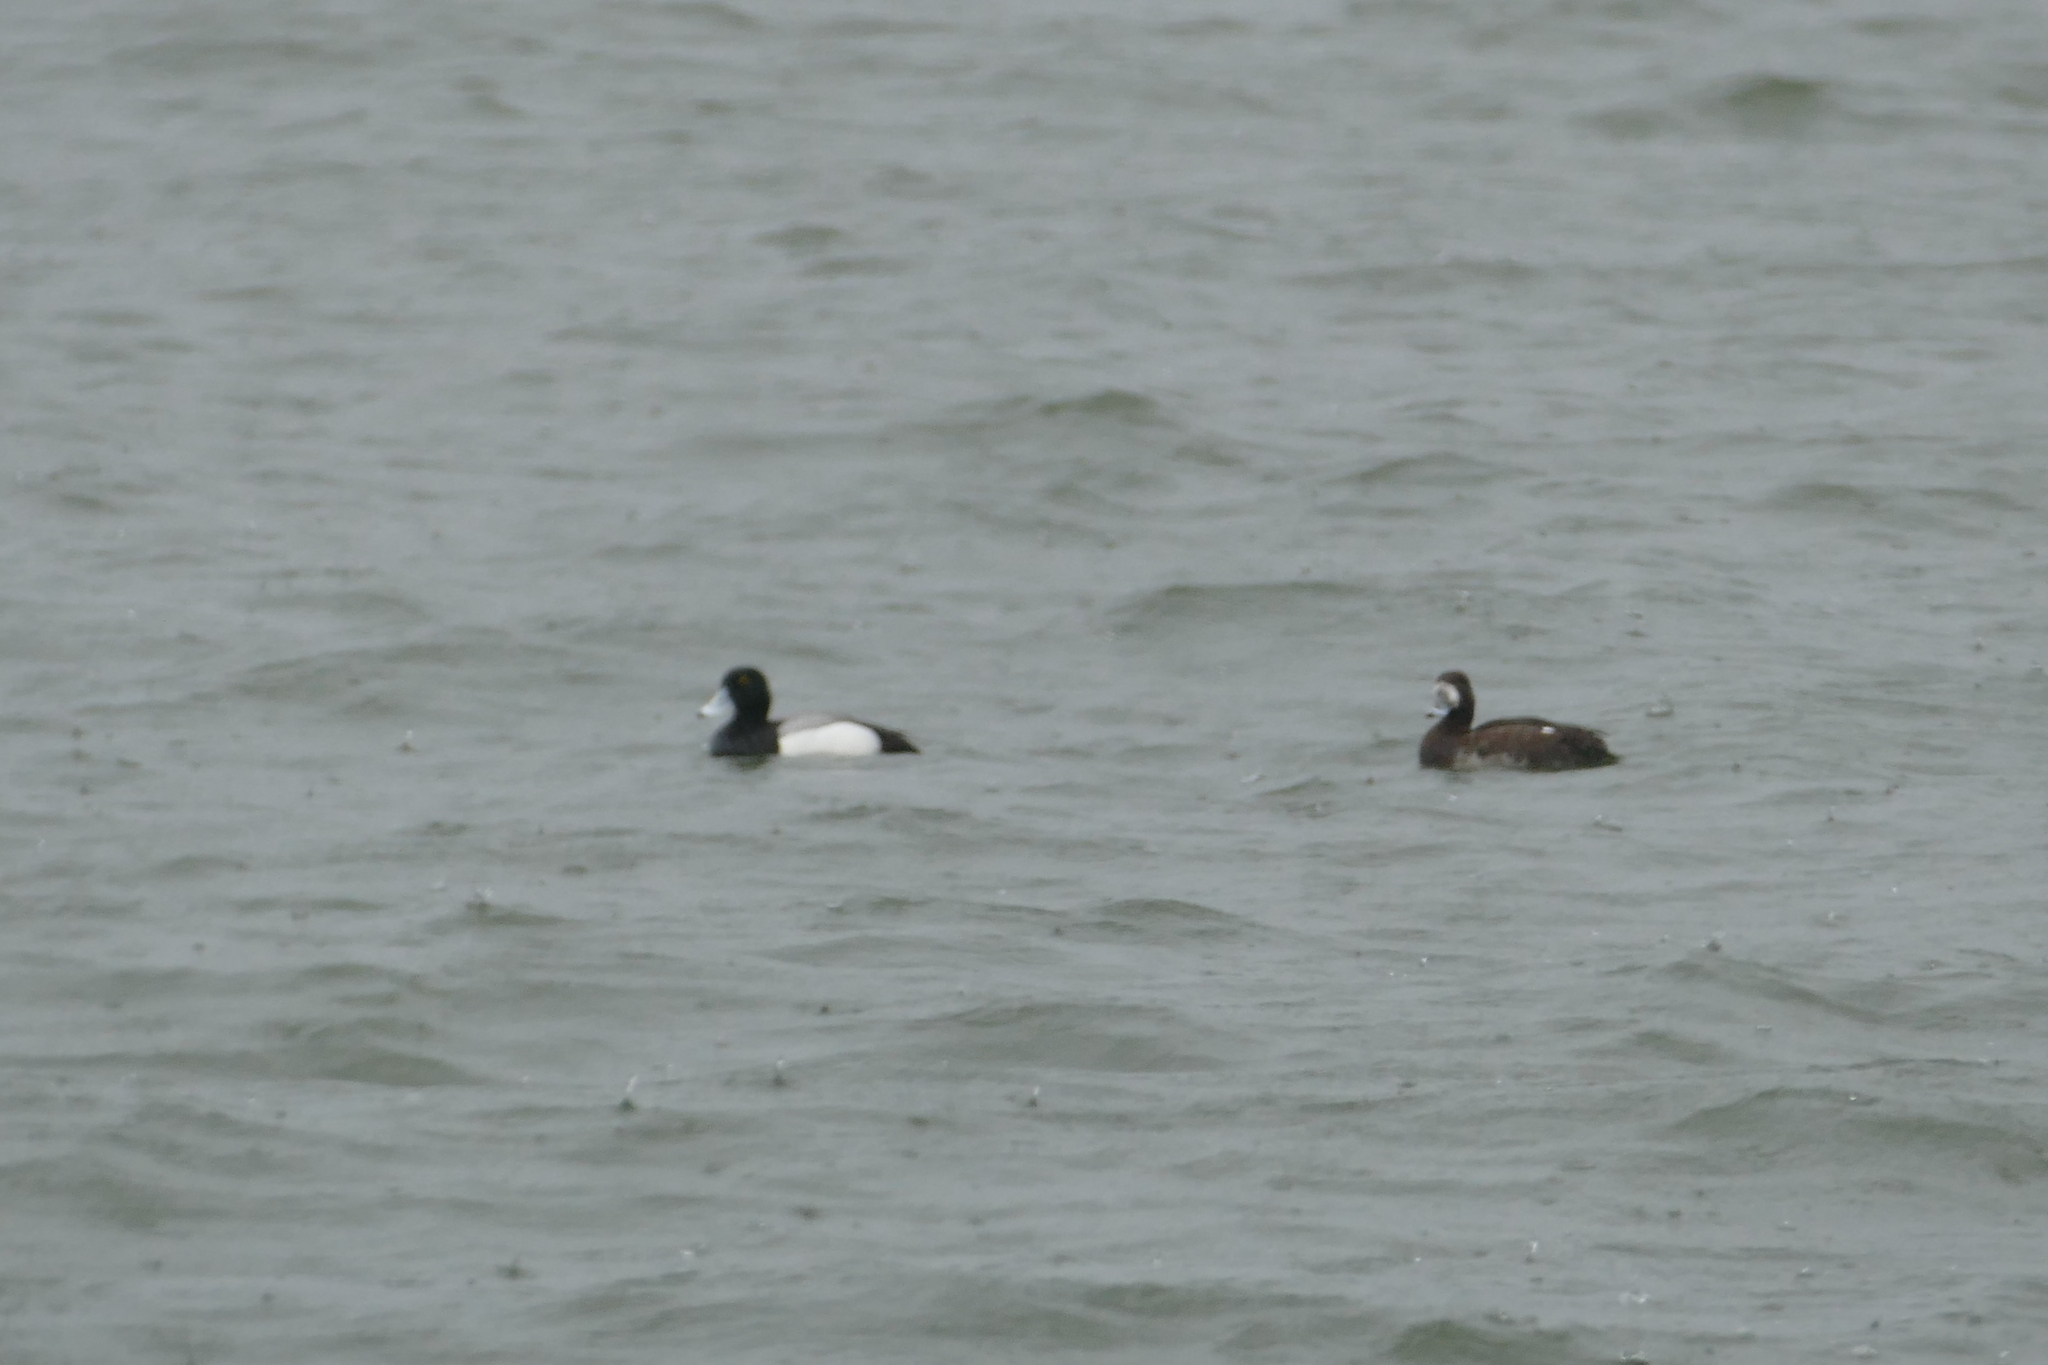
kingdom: Animalia
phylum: Chordata
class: Aves
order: Anseriformes
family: Anatidae
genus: Aythya
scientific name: Aythya marila
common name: Greater scaup
